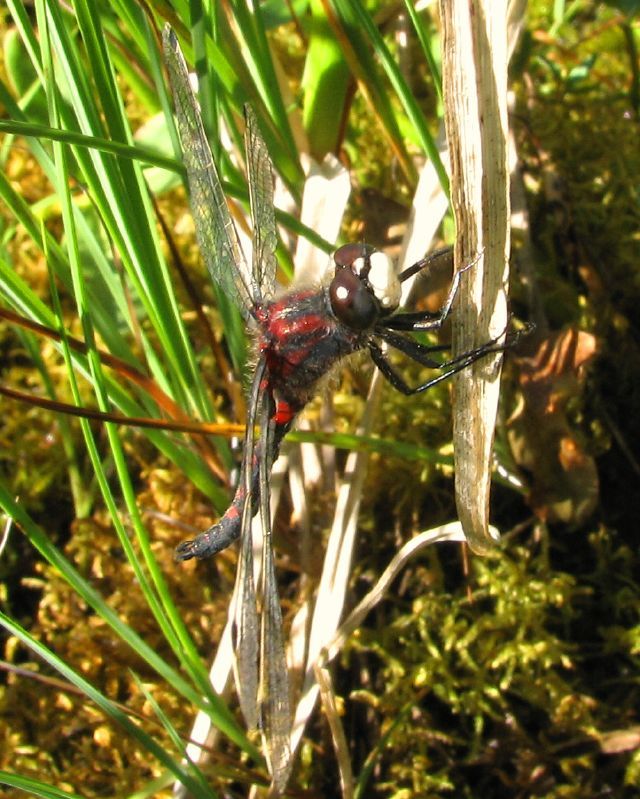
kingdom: Animalia
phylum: Arthropoda
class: Insecta
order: Odonata
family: Libellulidae
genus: Leucorrhinia
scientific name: Leucorrhinia hudsonica
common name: Hudsonian whiteface
